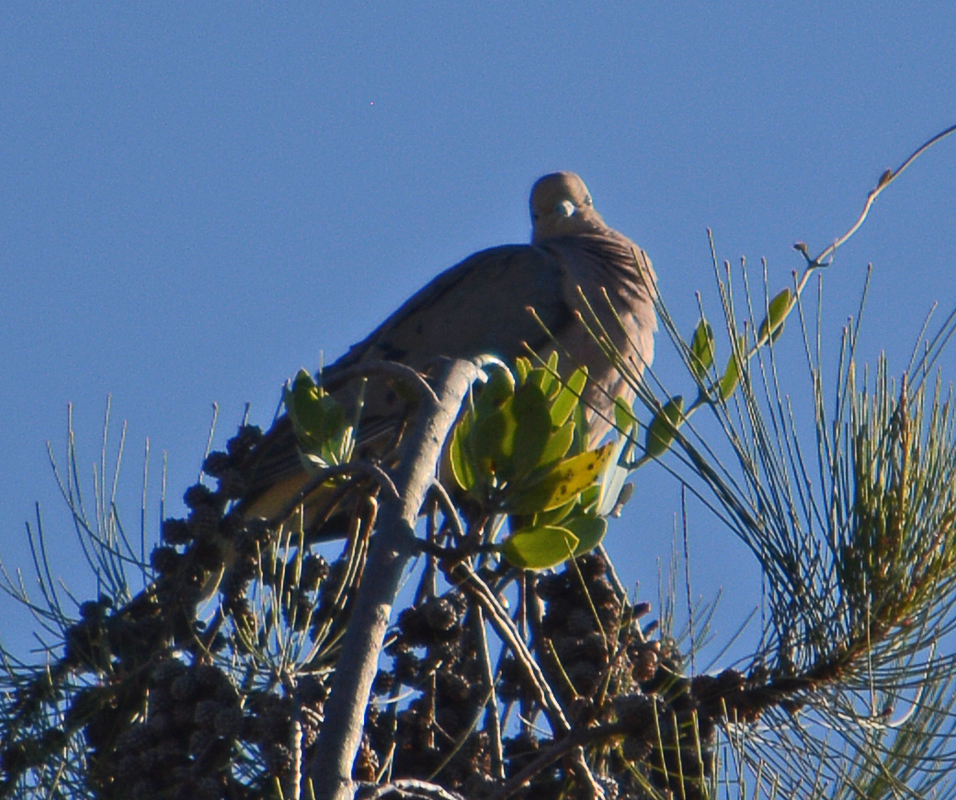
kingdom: Animalia
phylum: Chordata
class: Aves
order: Columbiformes
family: Columbidae
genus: Zenaida
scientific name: Zenaida macroura
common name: Mourning dove
